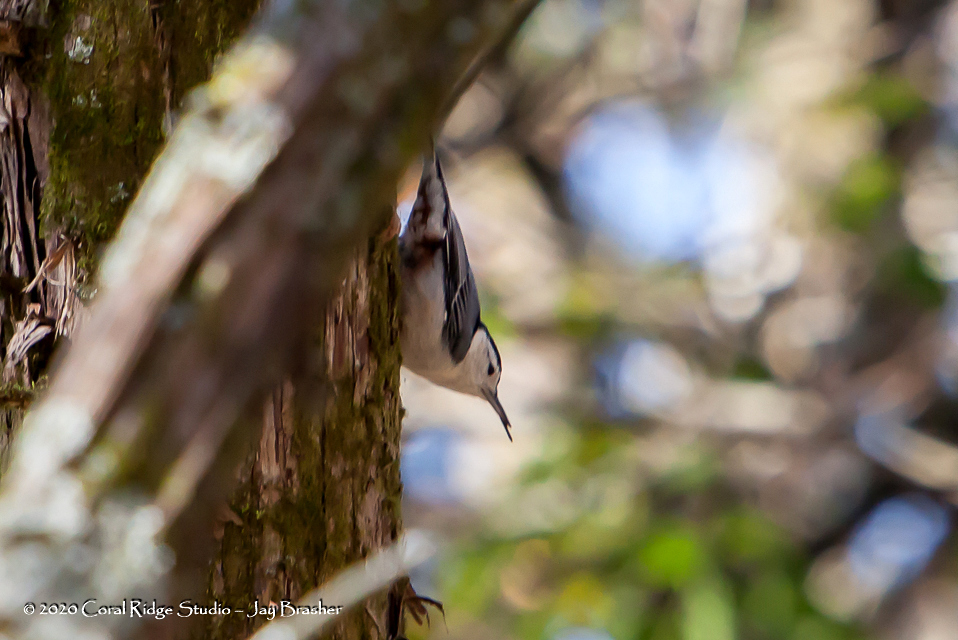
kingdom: Animalia
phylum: Chordata
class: Aves
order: Passeriformes
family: Sittidae
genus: Sitta
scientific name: Sitta carolinensis
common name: White-breasted nuthatch
